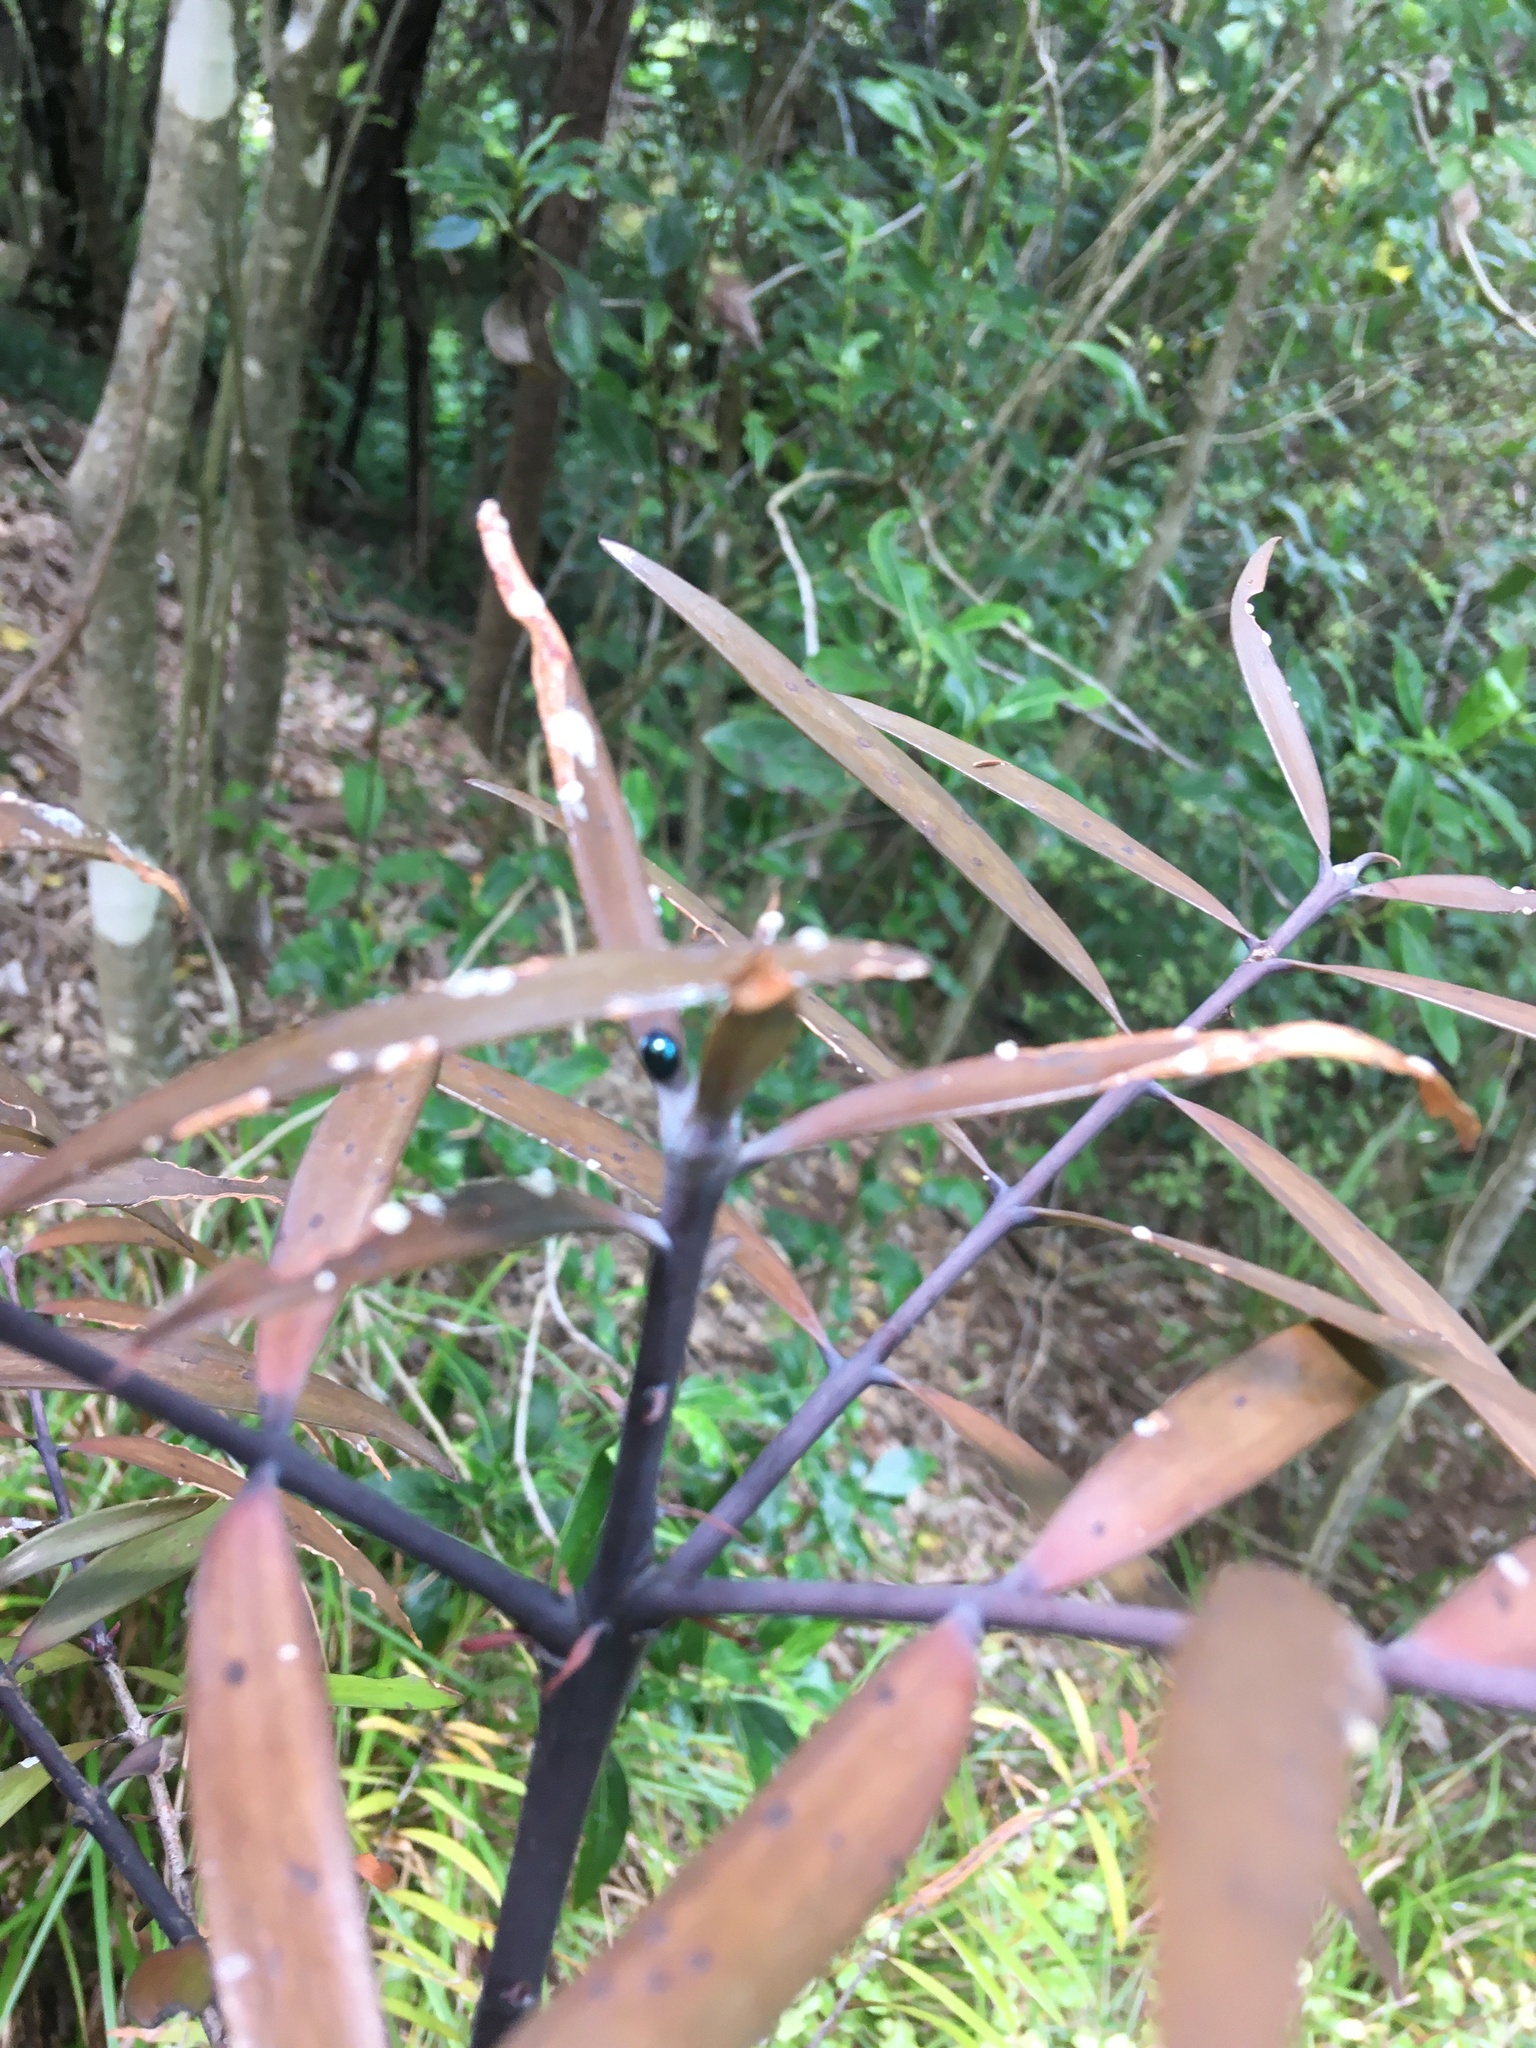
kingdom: Plantae
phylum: Tracheophyta
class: Pinopsida
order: Pinales
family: Araucariaceae
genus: Agathis
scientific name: Agathis australis
